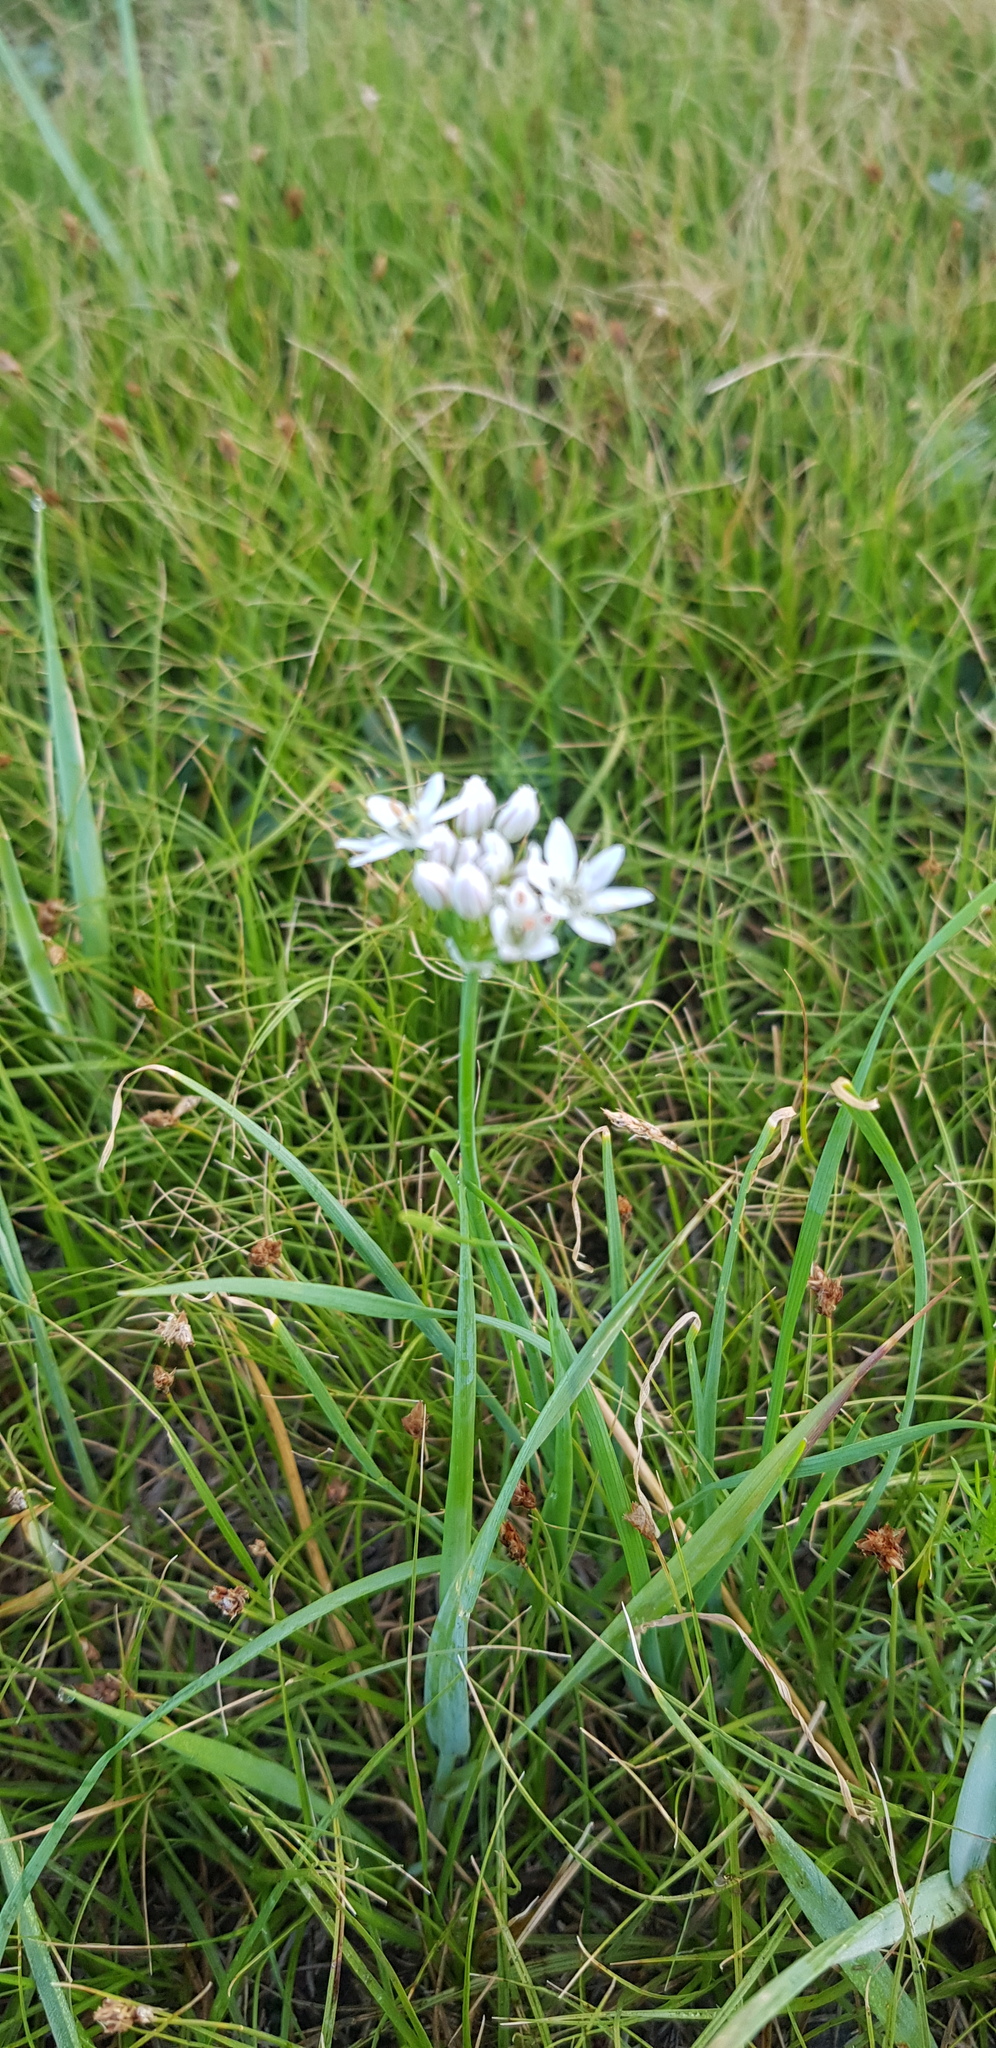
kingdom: Plantae
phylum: Tracheophyta
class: Liliopsida
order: Asparagales
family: Amaryllidaceae
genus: Allium
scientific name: Allium ramosum
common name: Fragrant garlic
